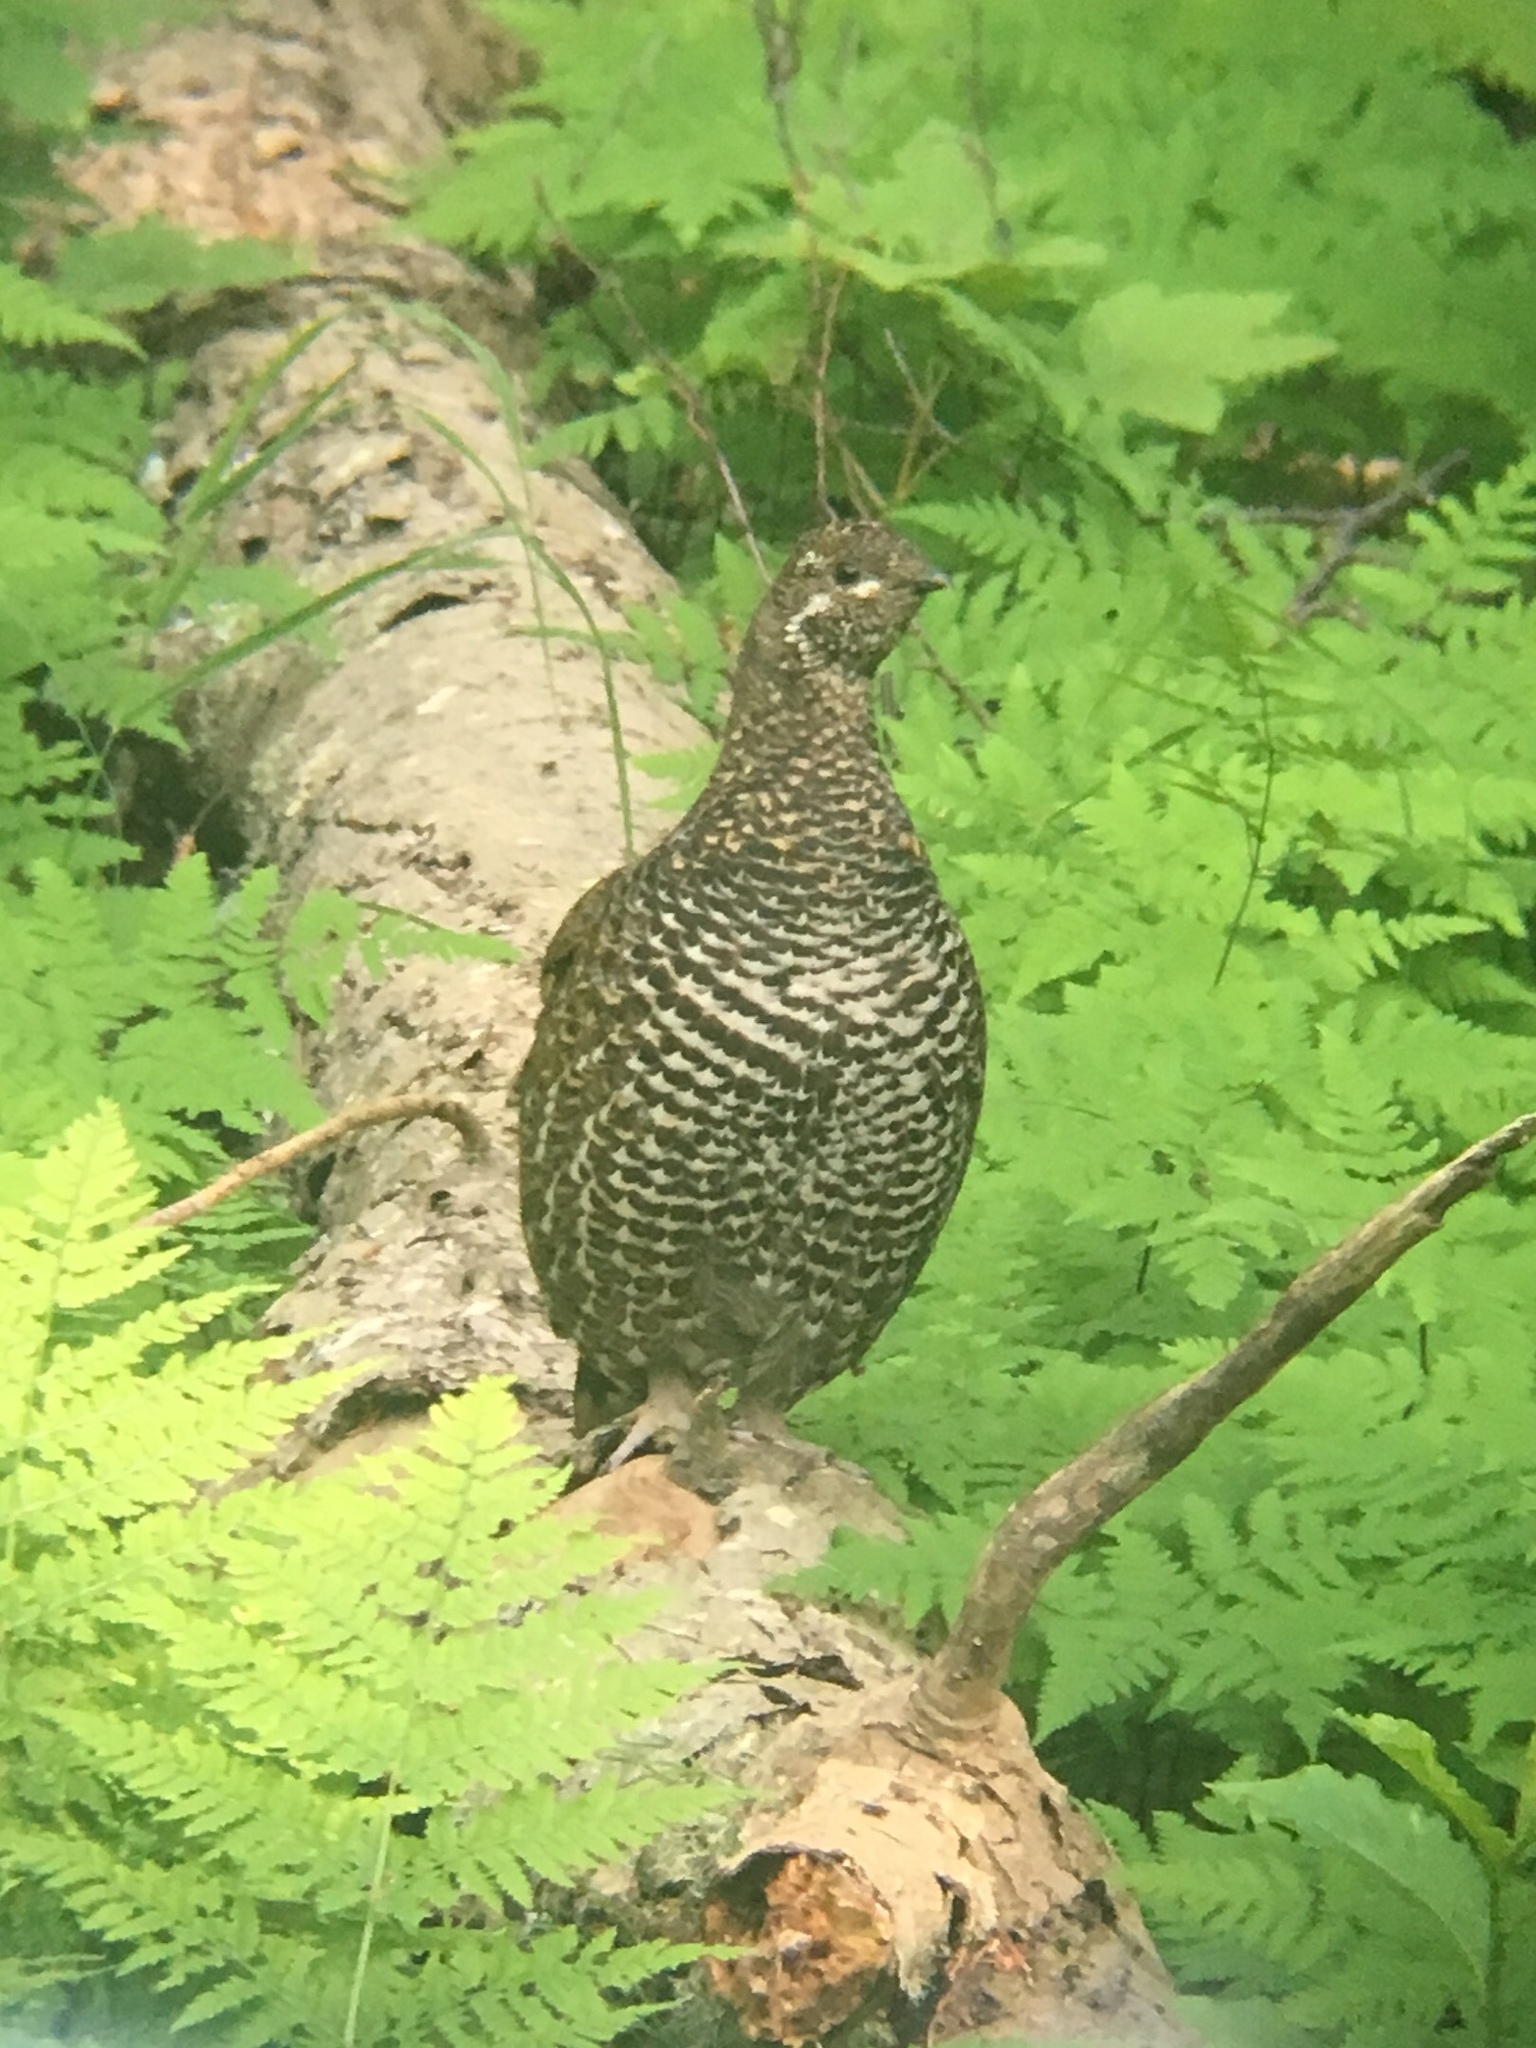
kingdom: Animalia
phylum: Chordata
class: Aves
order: Galliformes
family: Phasianidae
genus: Canachites
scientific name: Canachites canadensis
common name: Spruce grouse
